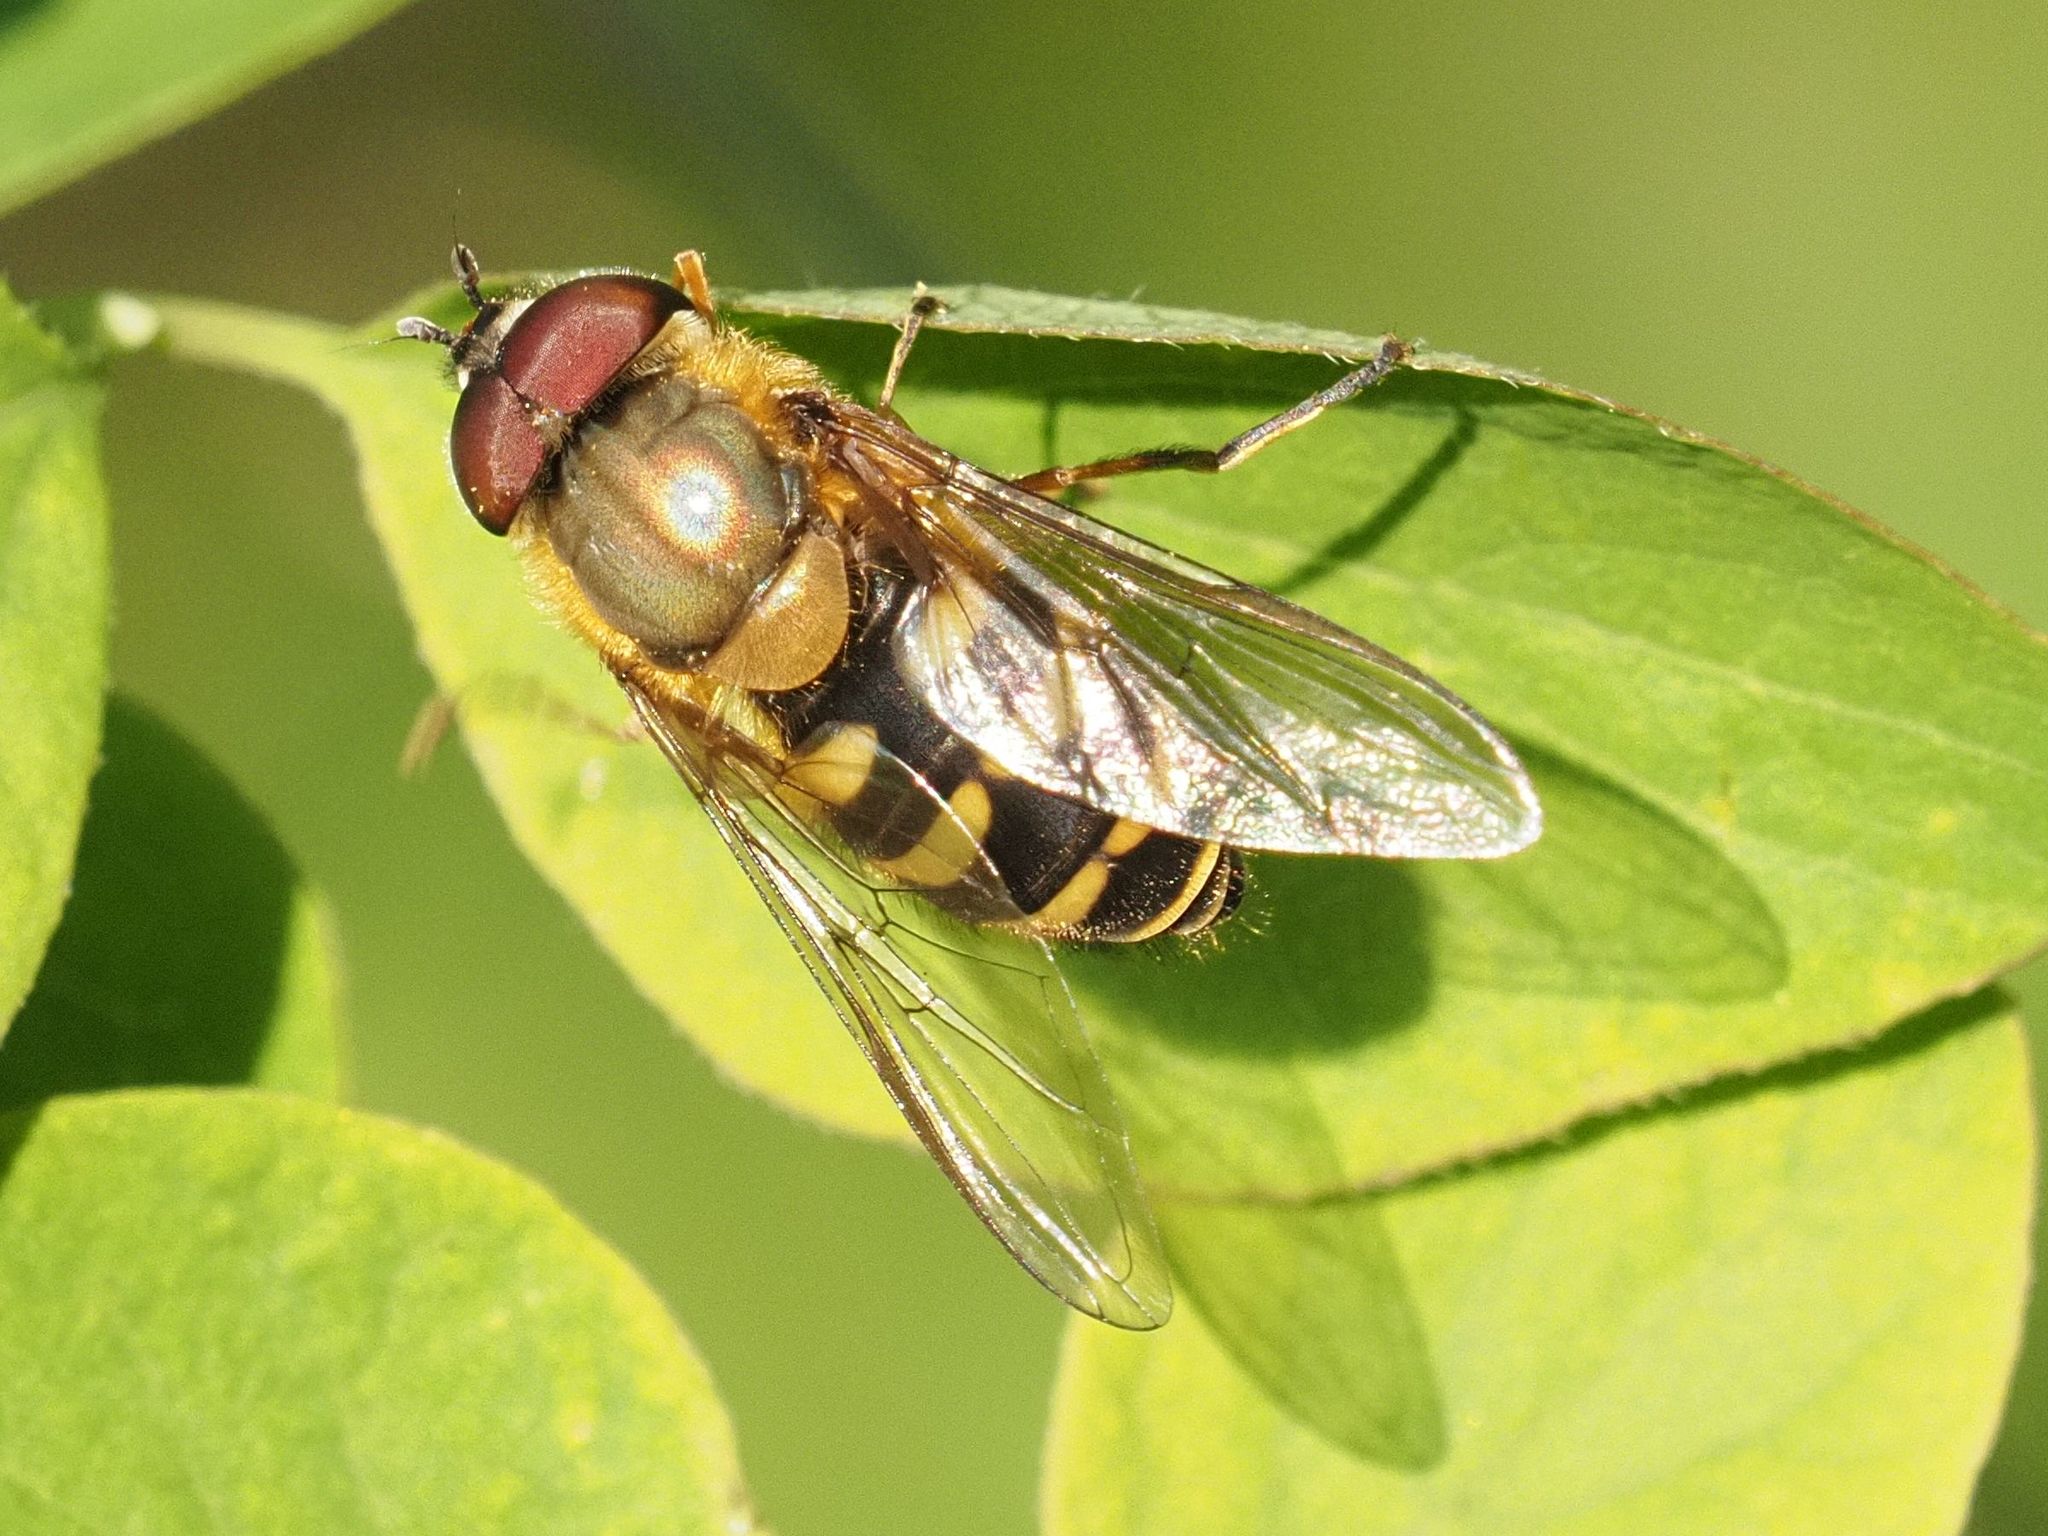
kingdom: Animalia
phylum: Arthropoda
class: Insecta
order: Diptera
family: Syrphidae
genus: Syrphus
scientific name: Syrphus torvus
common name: Hairy-eyed flower fly
